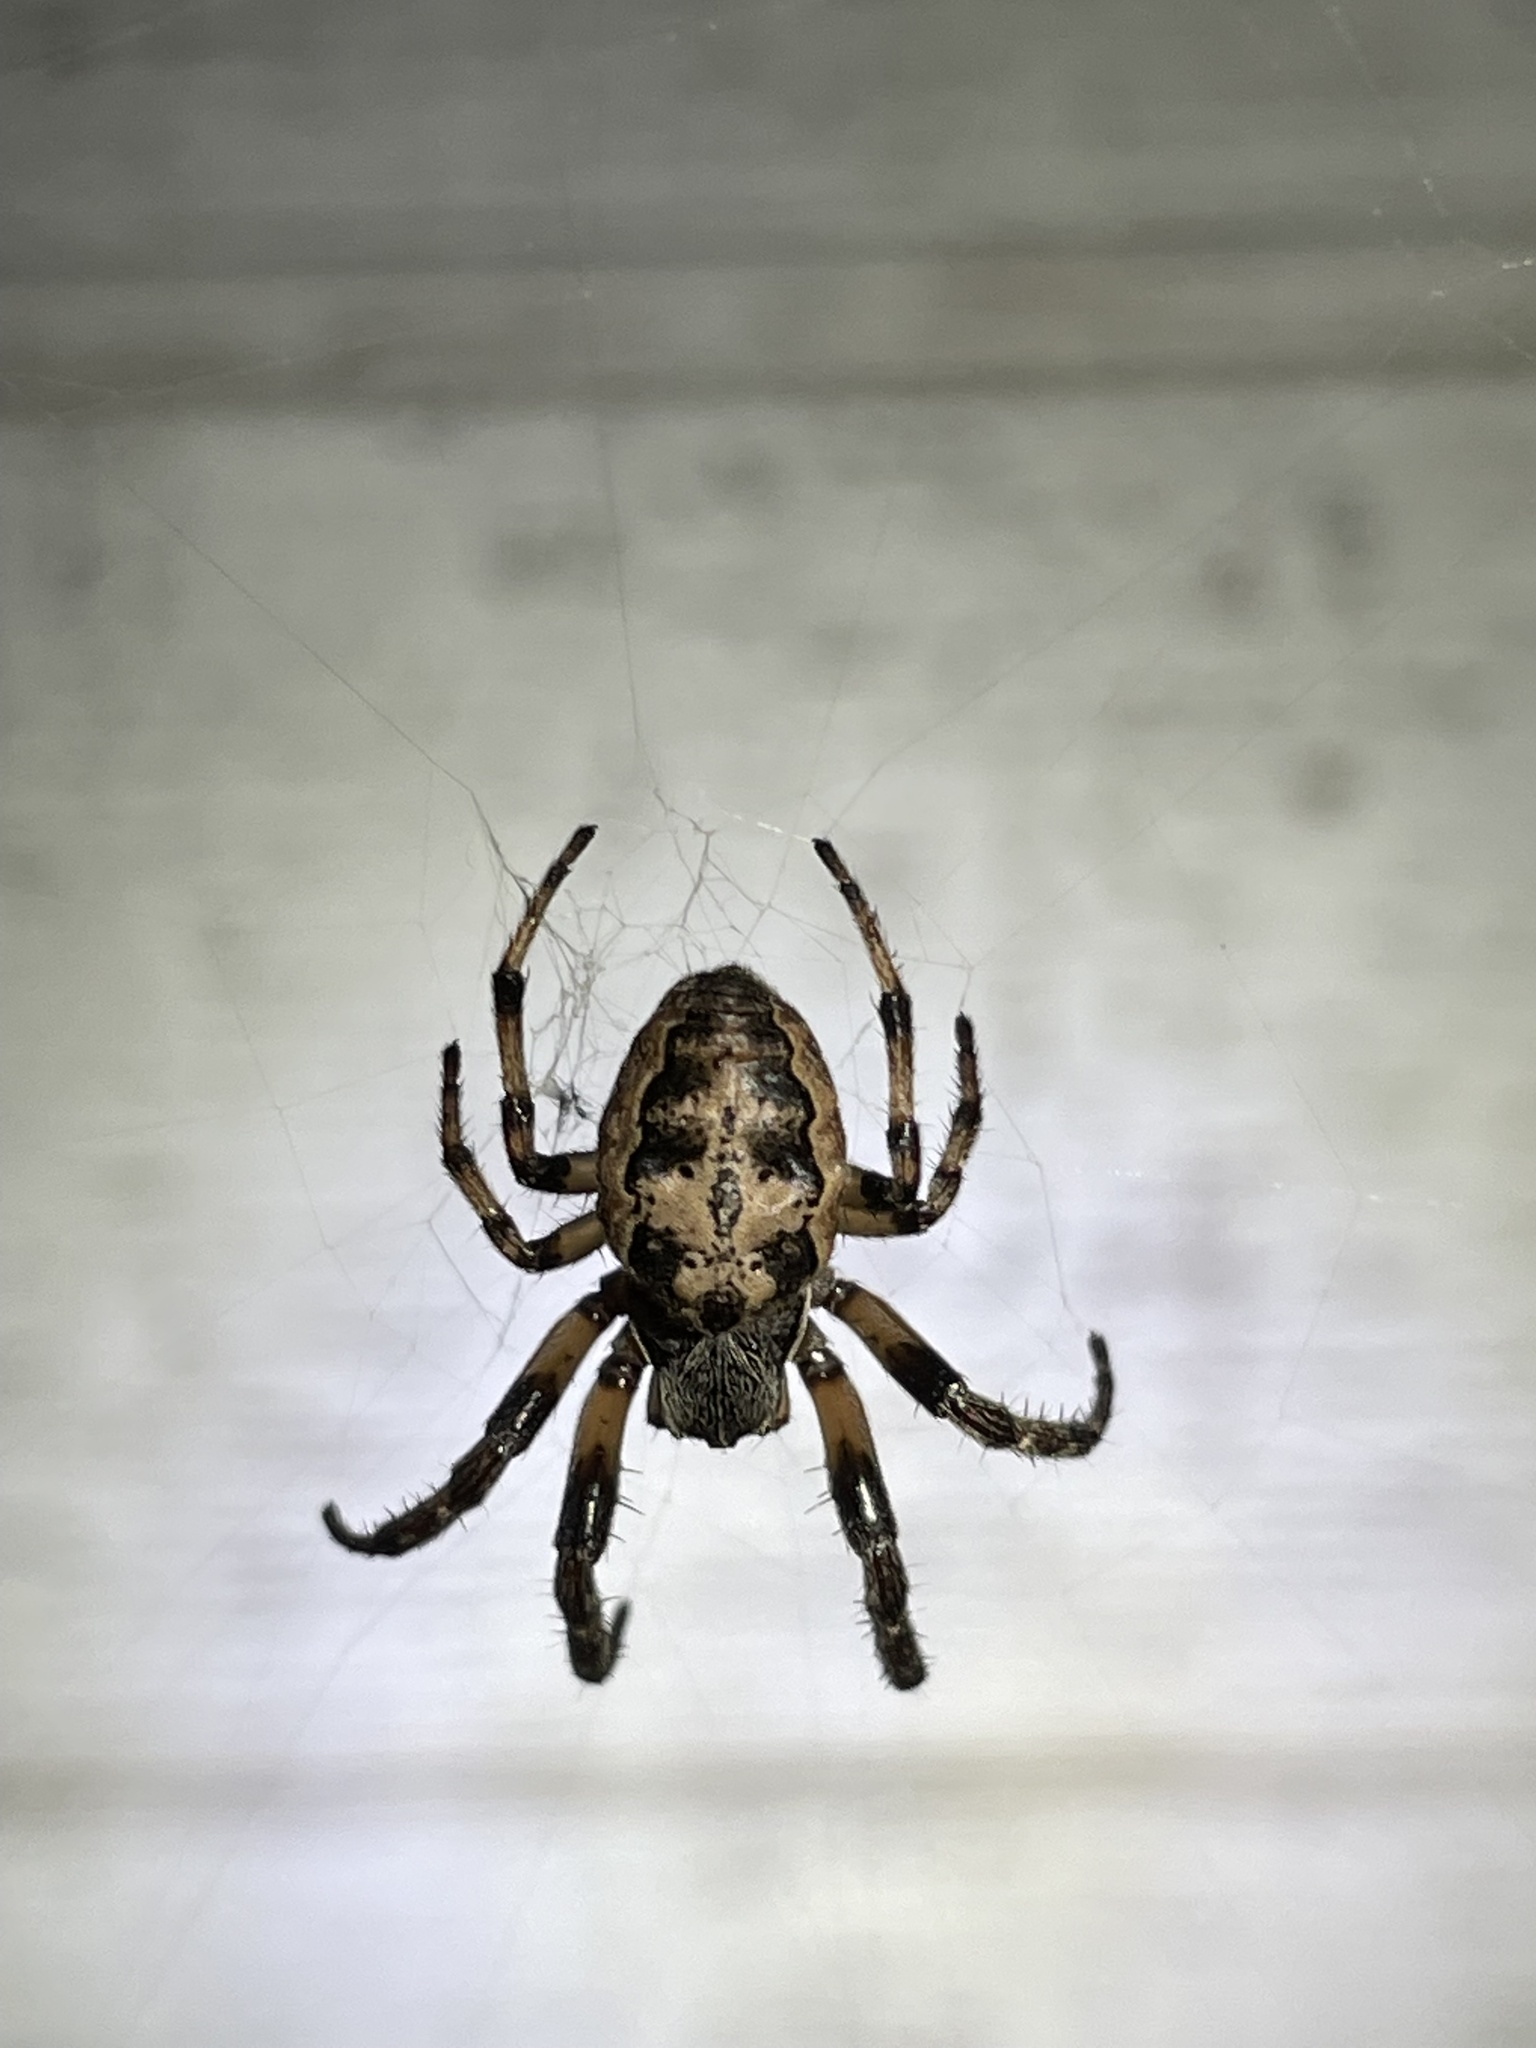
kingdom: Animalia
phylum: Arthropoda
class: Arachnida
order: Araneae
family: Araneidae
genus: Larinioides
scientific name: Larinioides cornutus
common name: Furrow orbweaver
